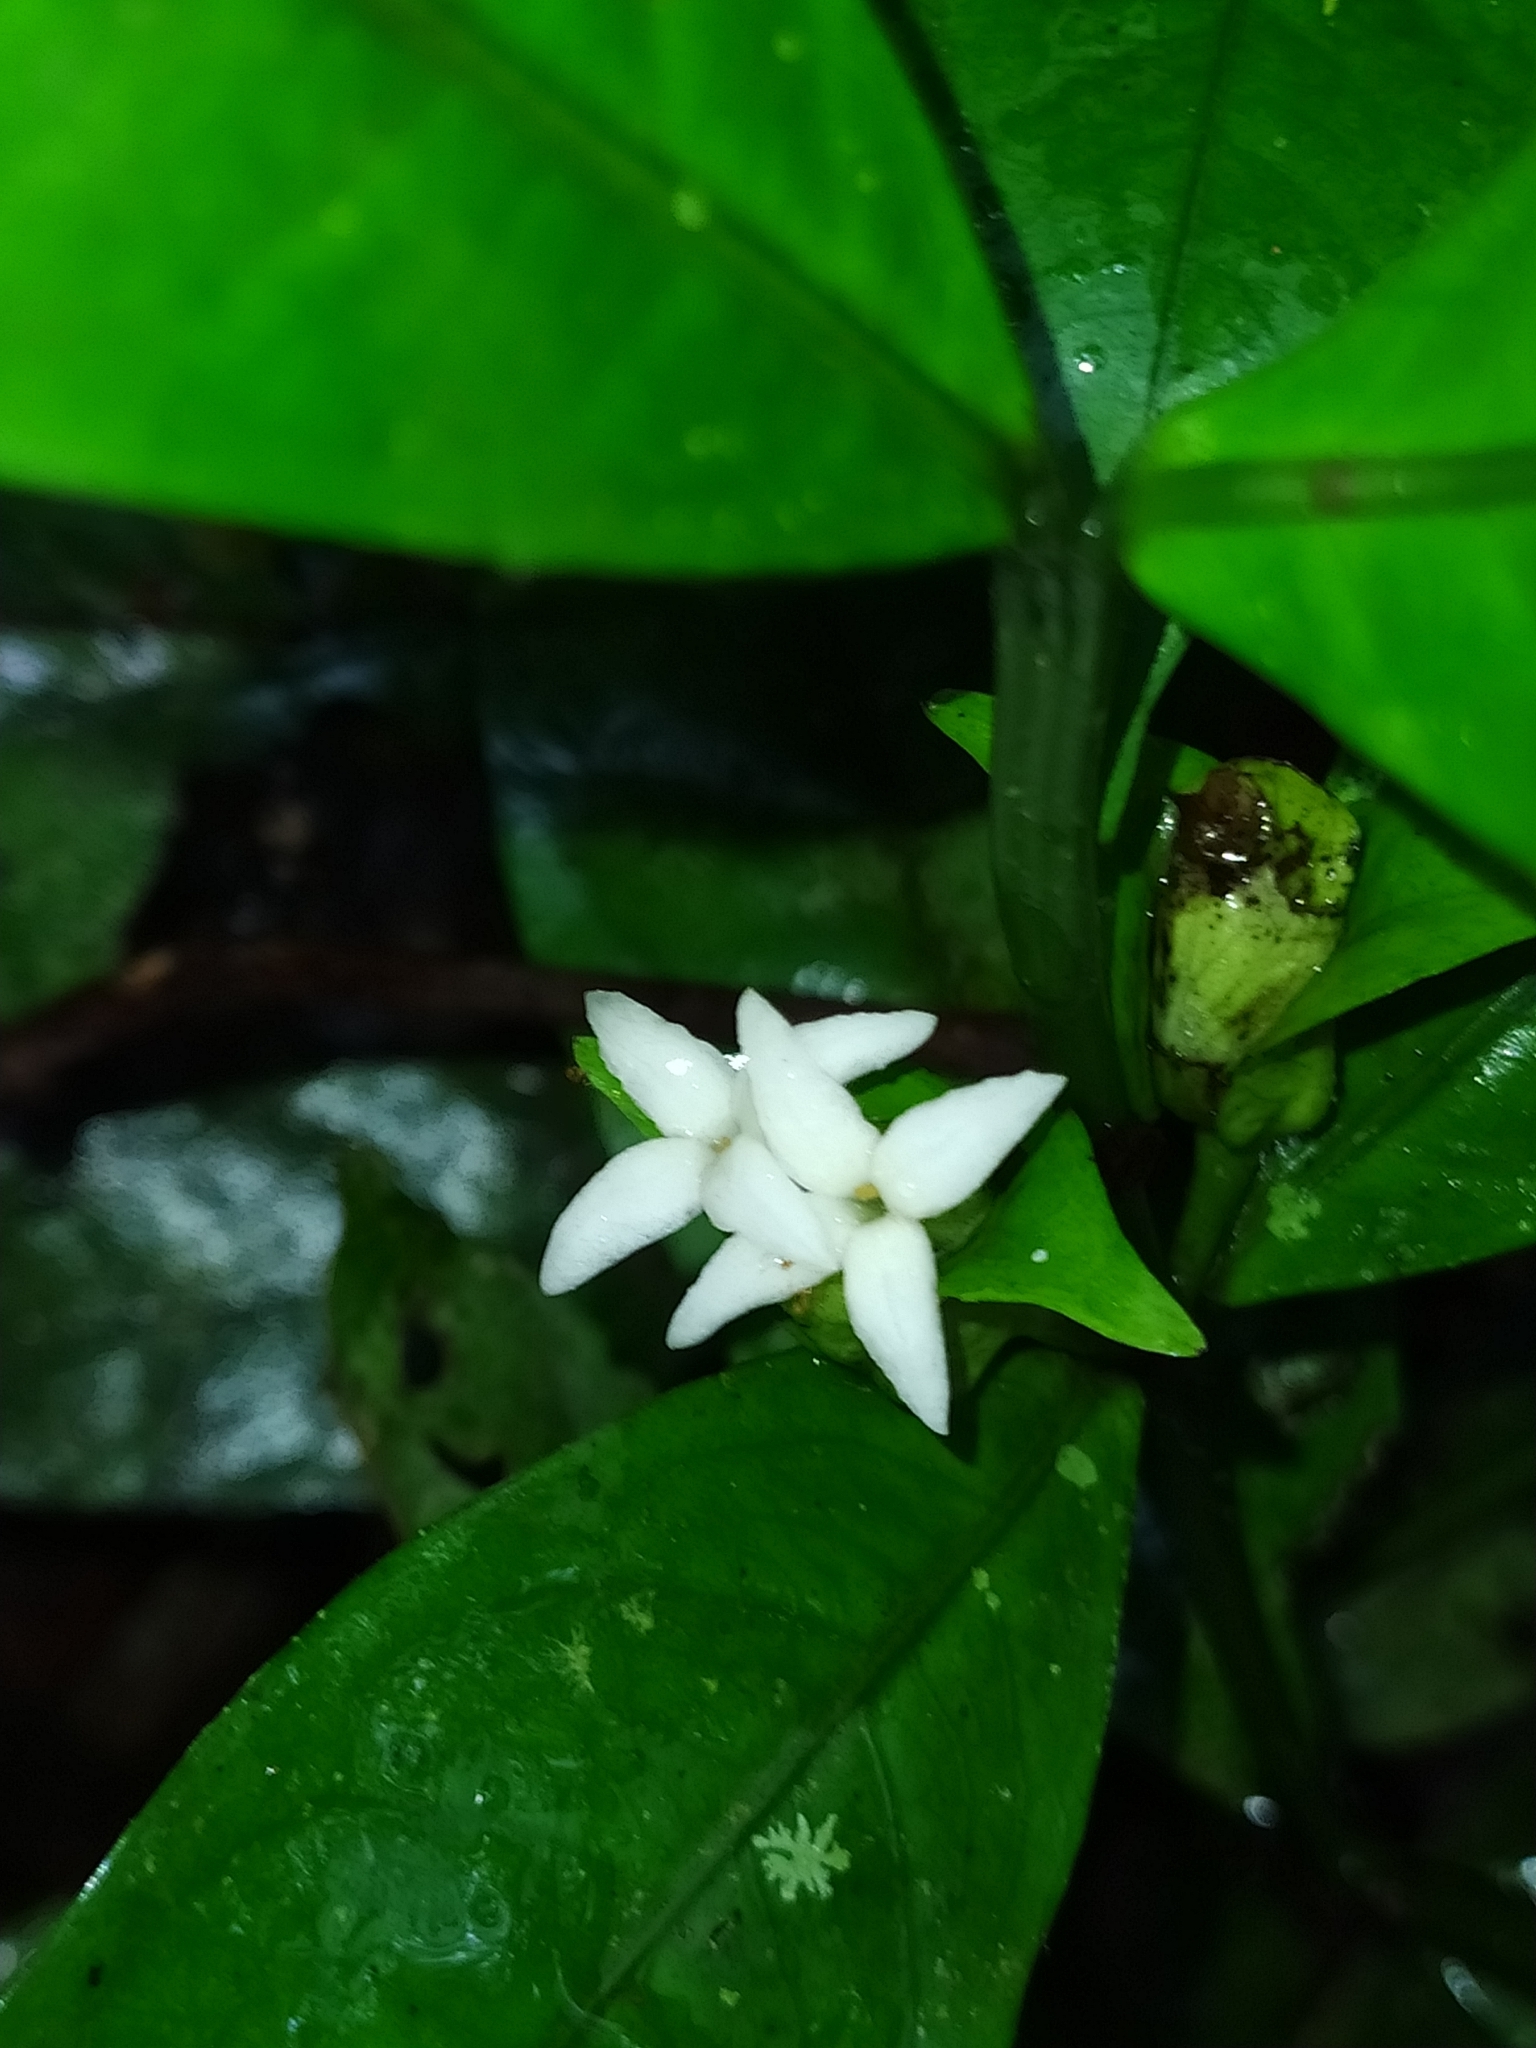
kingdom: Plantae
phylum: Tracheophyta
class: Magnoliopsida
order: Gentianales
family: Rubiaceae
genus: Faramea
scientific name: Faramea guianensis
